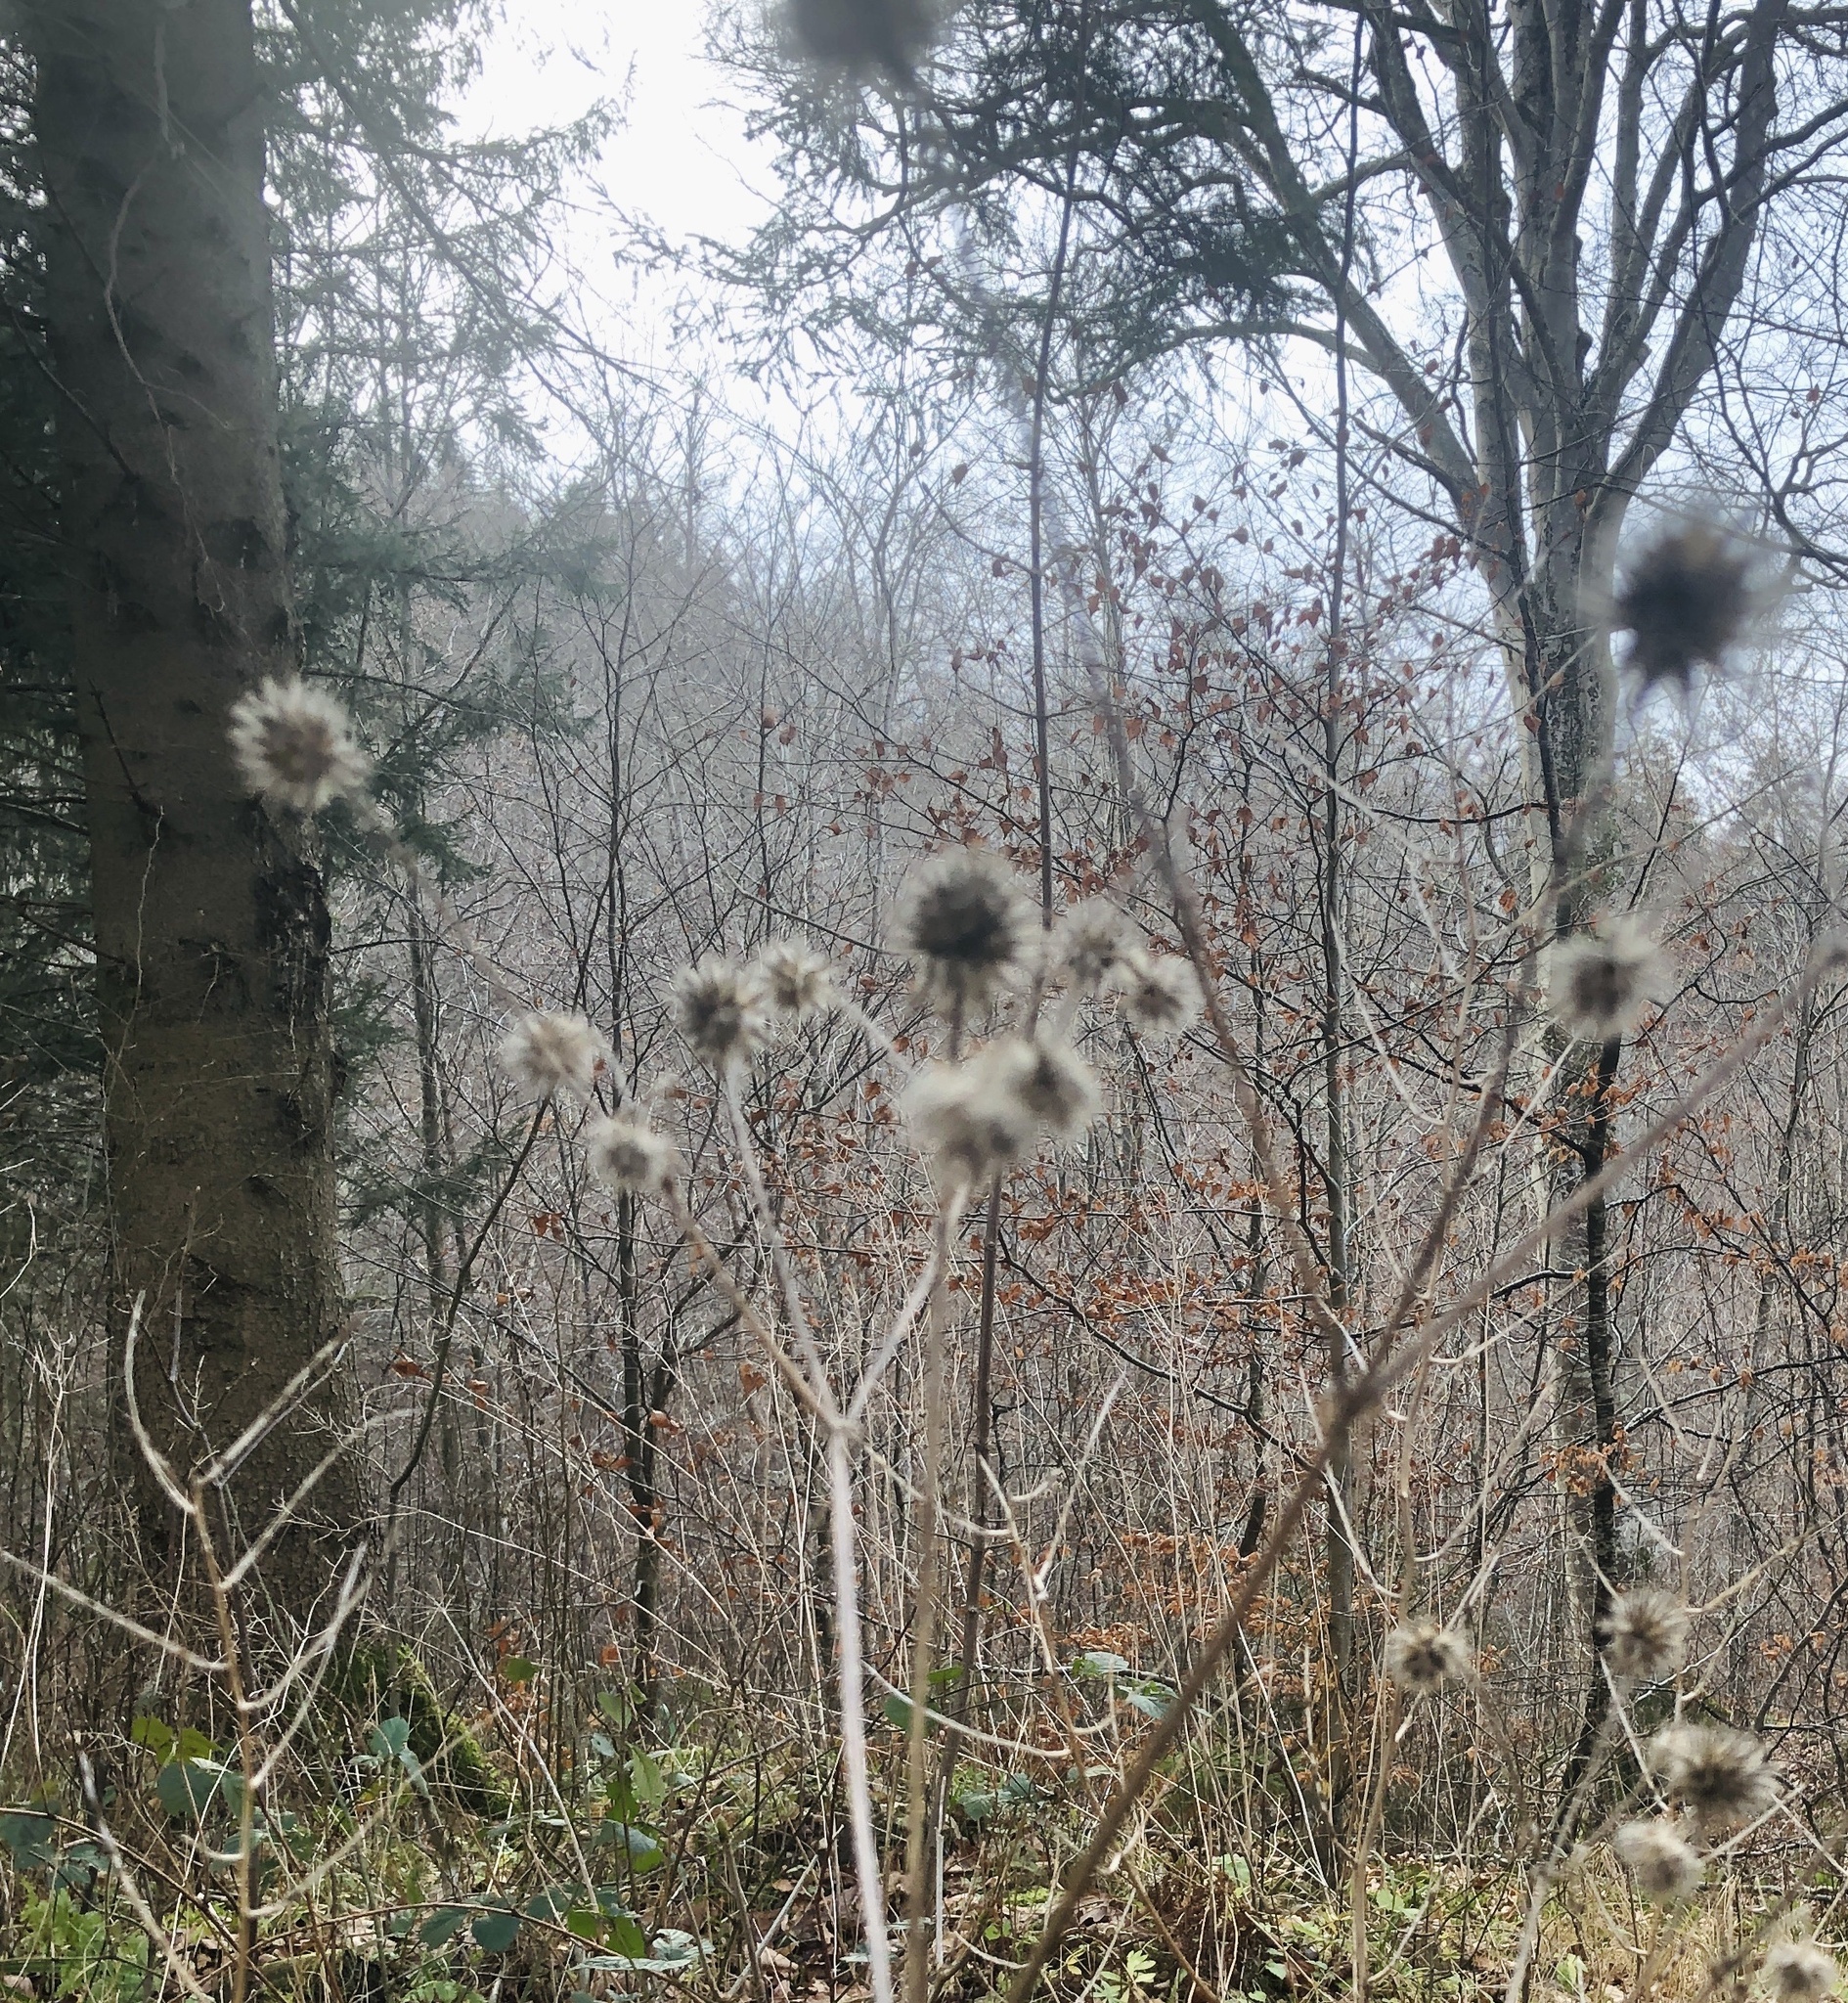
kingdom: Plantae
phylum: Tracheophyta
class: Magnoliopsida
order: Dipsacales
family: Caprifoliaceae
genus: Dipsacus
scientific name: Dipsacus pilosus
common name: Small teasel
